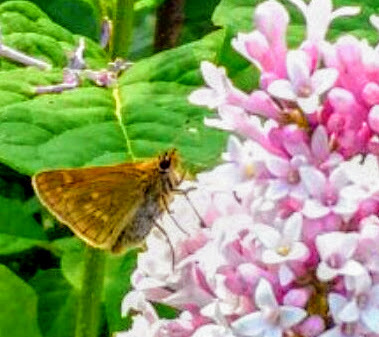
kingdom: Animalia
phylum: Arthropoda
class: Insecta
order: Lepidoptera
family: Hesperiidae
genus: Ochlodes
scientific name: Ochlodes venata
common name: Large skipper
